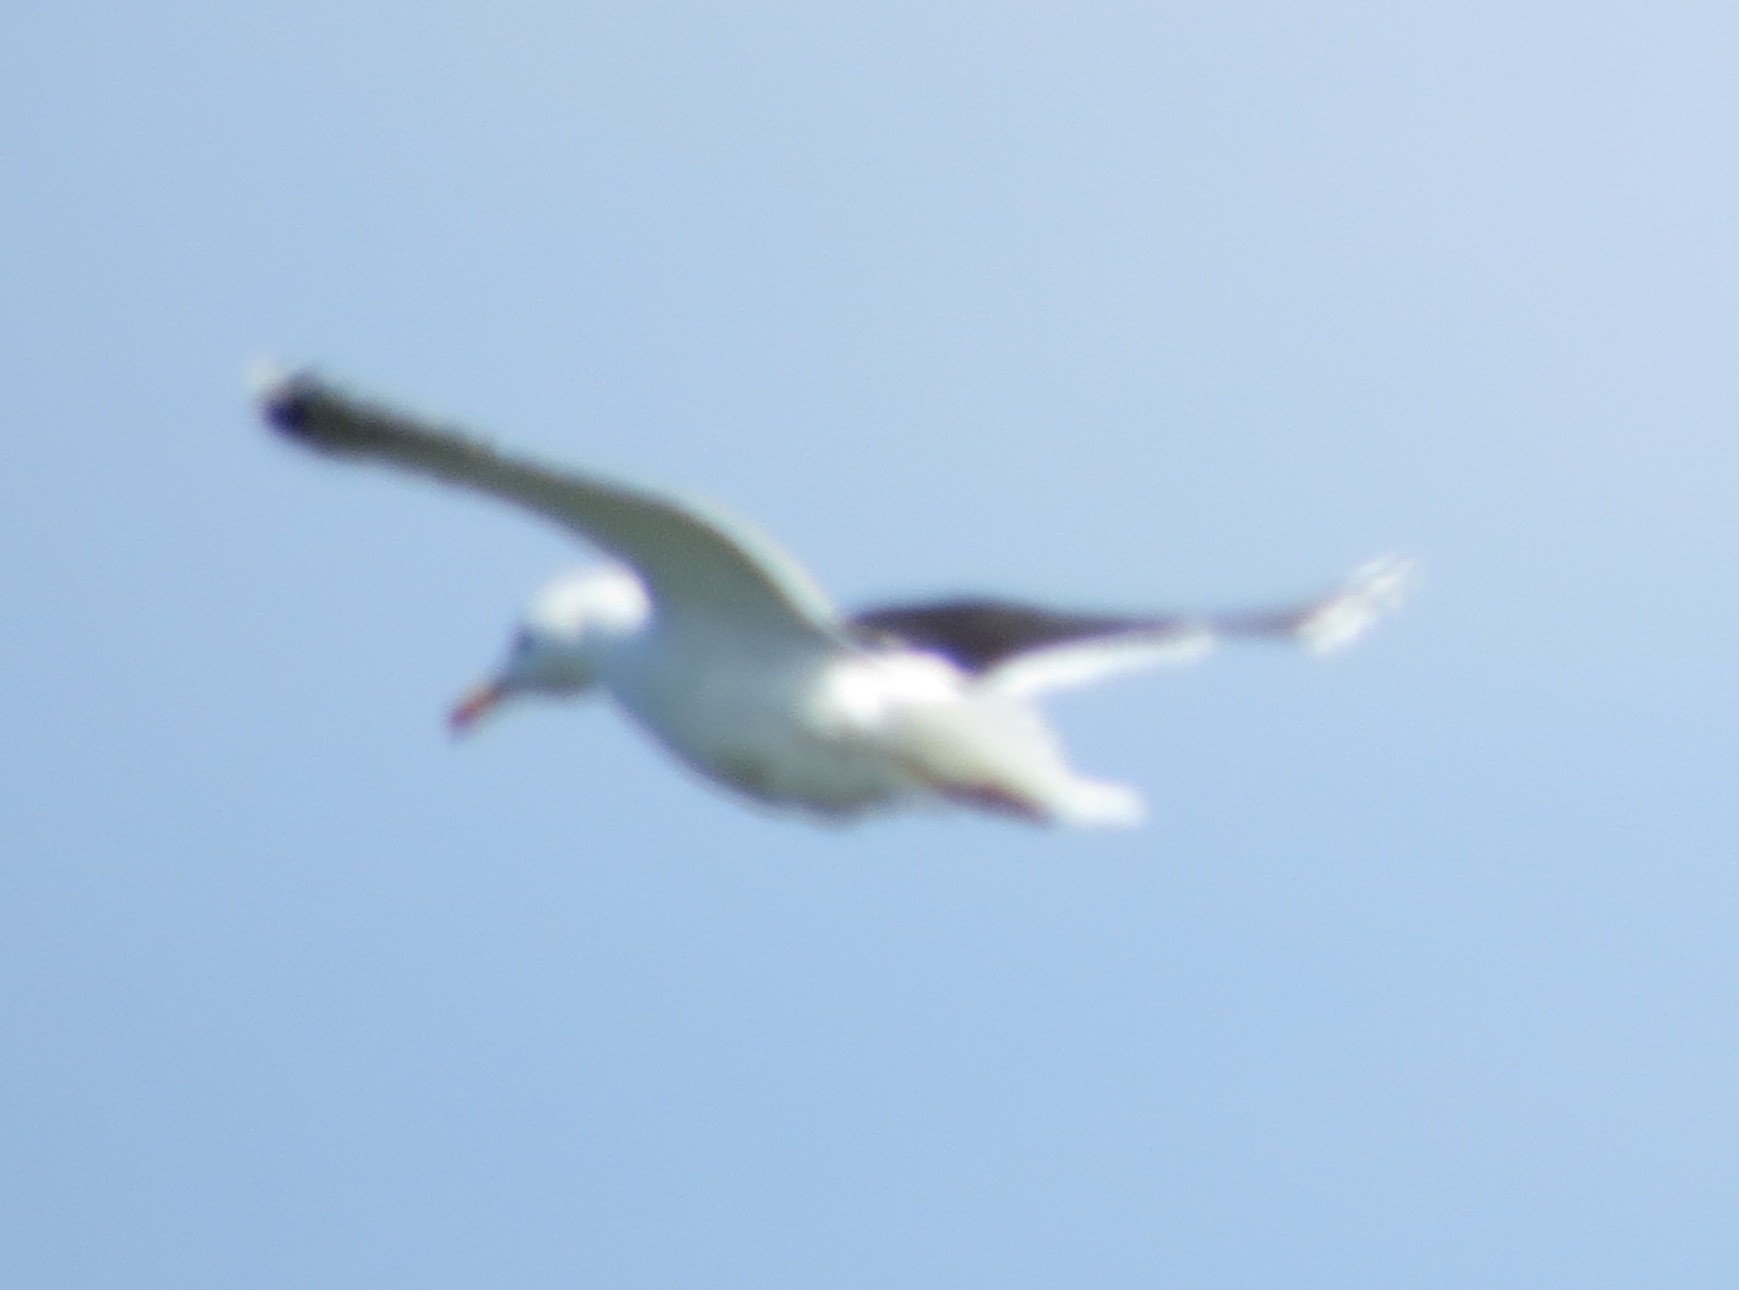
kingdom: Animalia
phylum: Chordata
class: Aves
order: Charadriiformes
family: Laridae
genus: Larus
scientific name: Larus marinus
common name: Great black-backed gull
